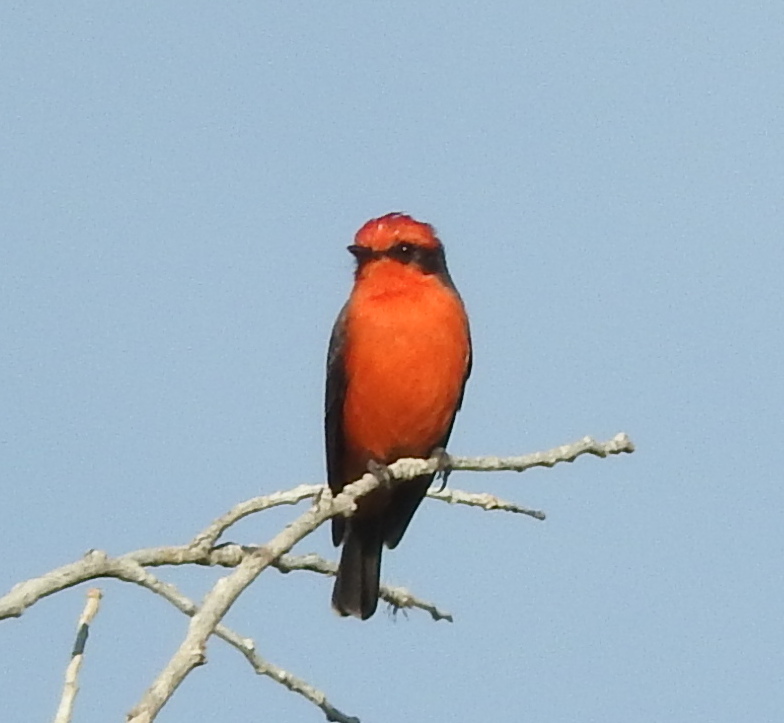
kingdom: Animalia
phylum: Chordata
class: Aves
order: Passeriformes
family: Tyrannidae
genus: Pyrocephalus
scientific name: Pyrocephalus rubinus
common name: Vermilion flycatcher
